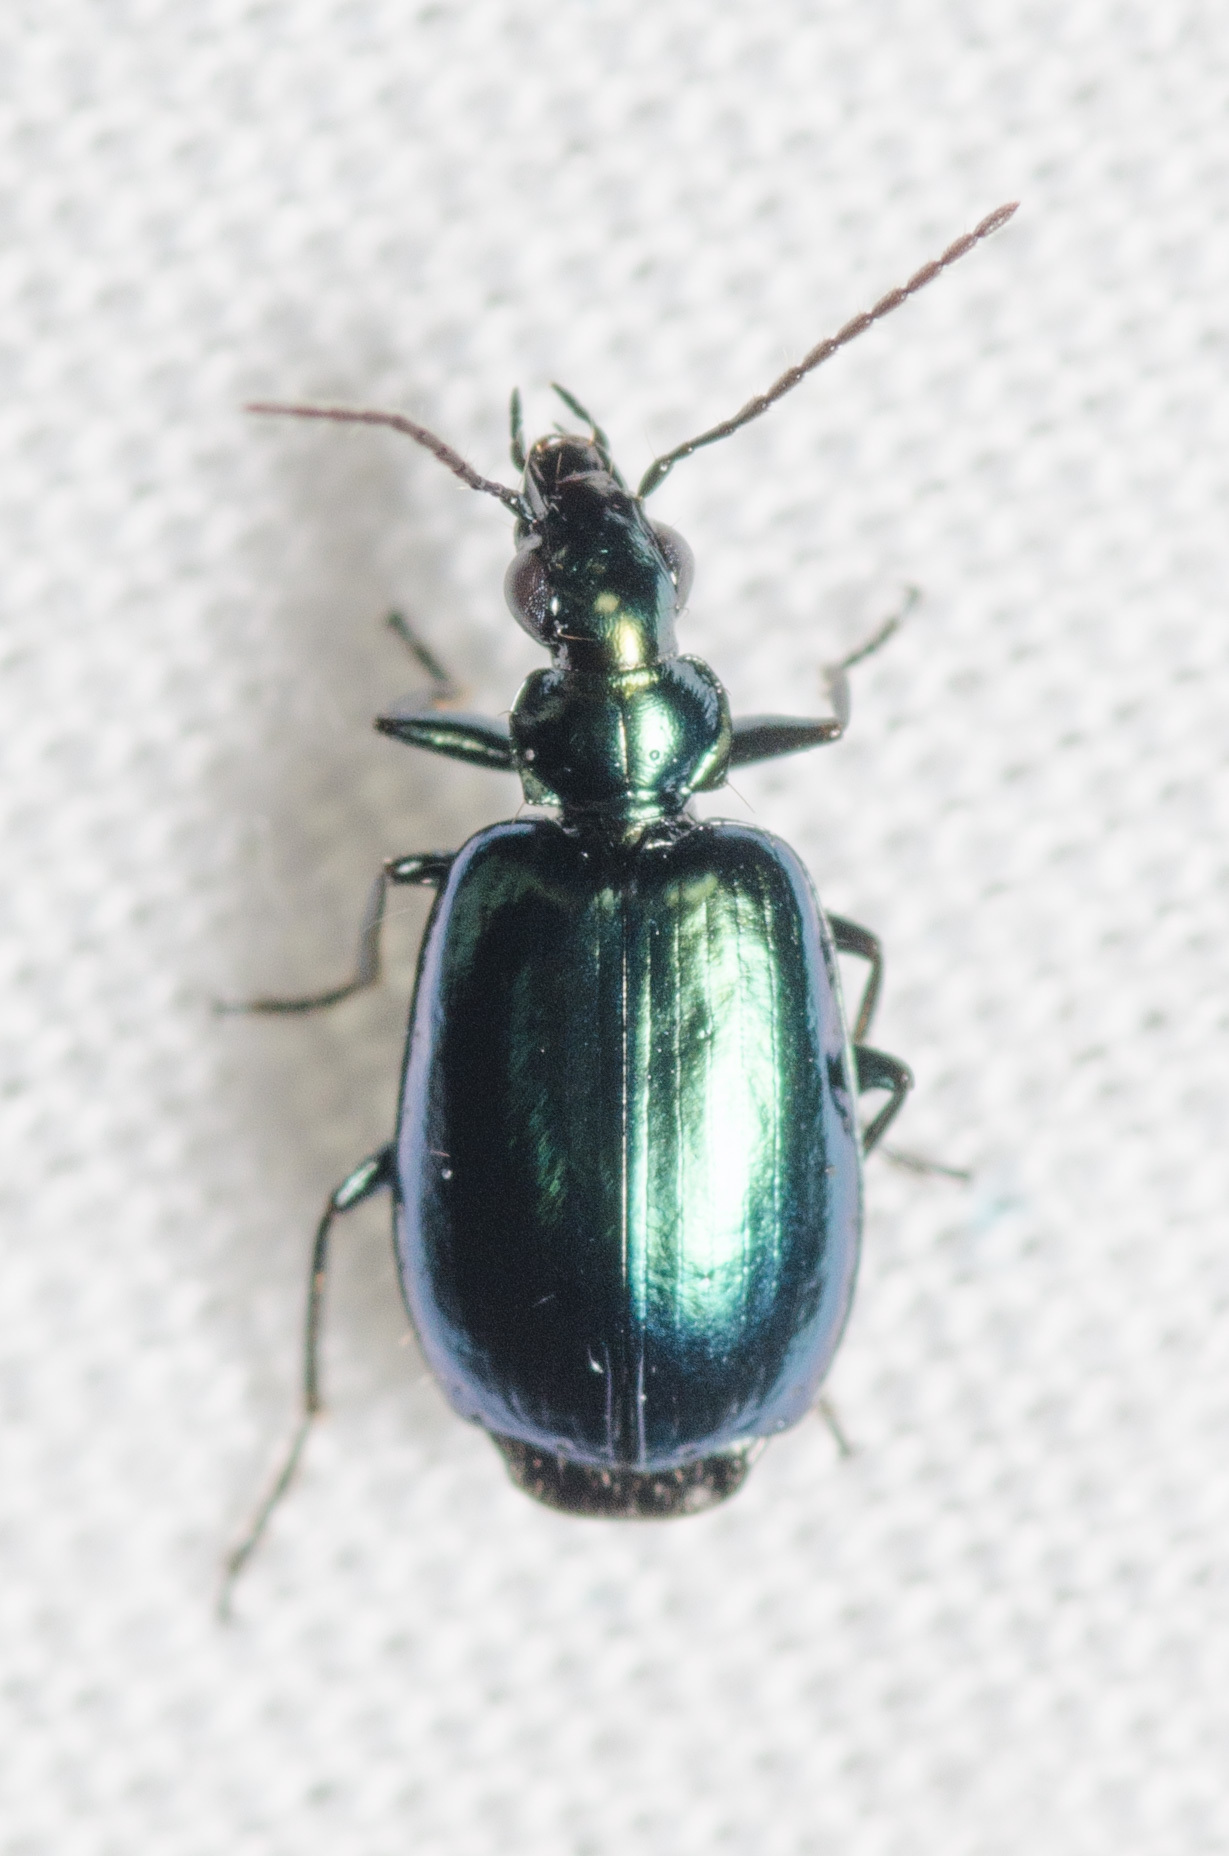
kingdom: Animalia
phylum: Arthropoda
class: Insecta
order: Coleoptera
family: Carabidae
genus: Lebia
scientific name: Lebia viridis
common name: Flower lebia beetle
